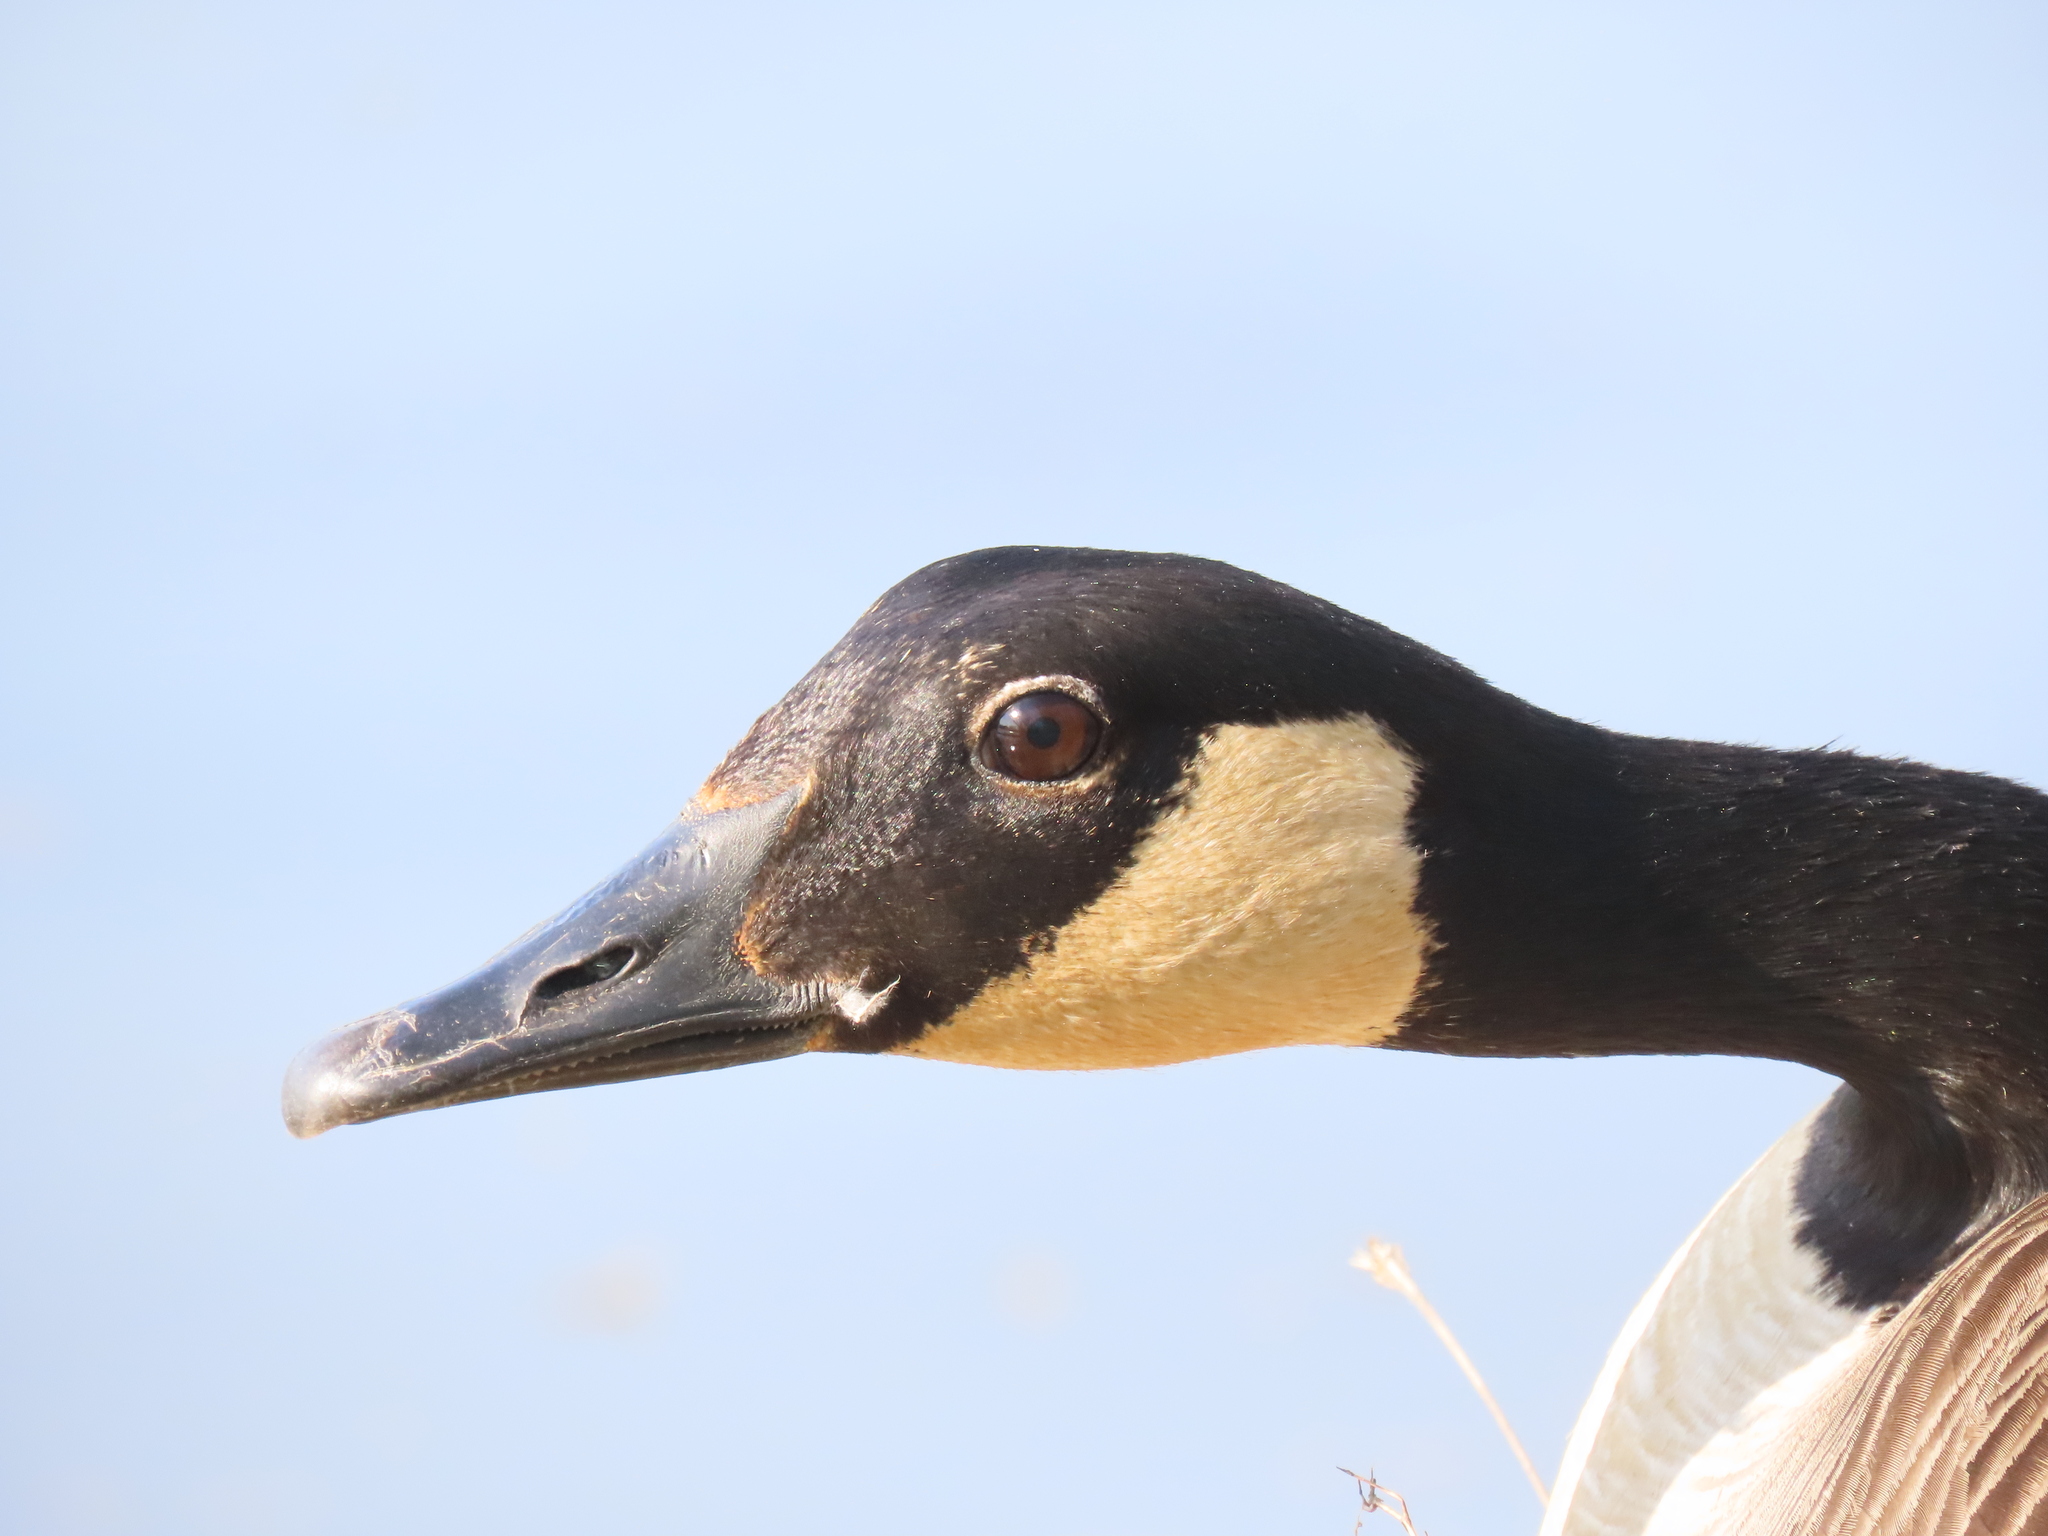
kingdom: Animalia
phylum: Chordata
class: Aves
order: Anseriformes
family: Anatidae
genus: Branta
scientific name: Branta canadensis
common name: Canada goose
